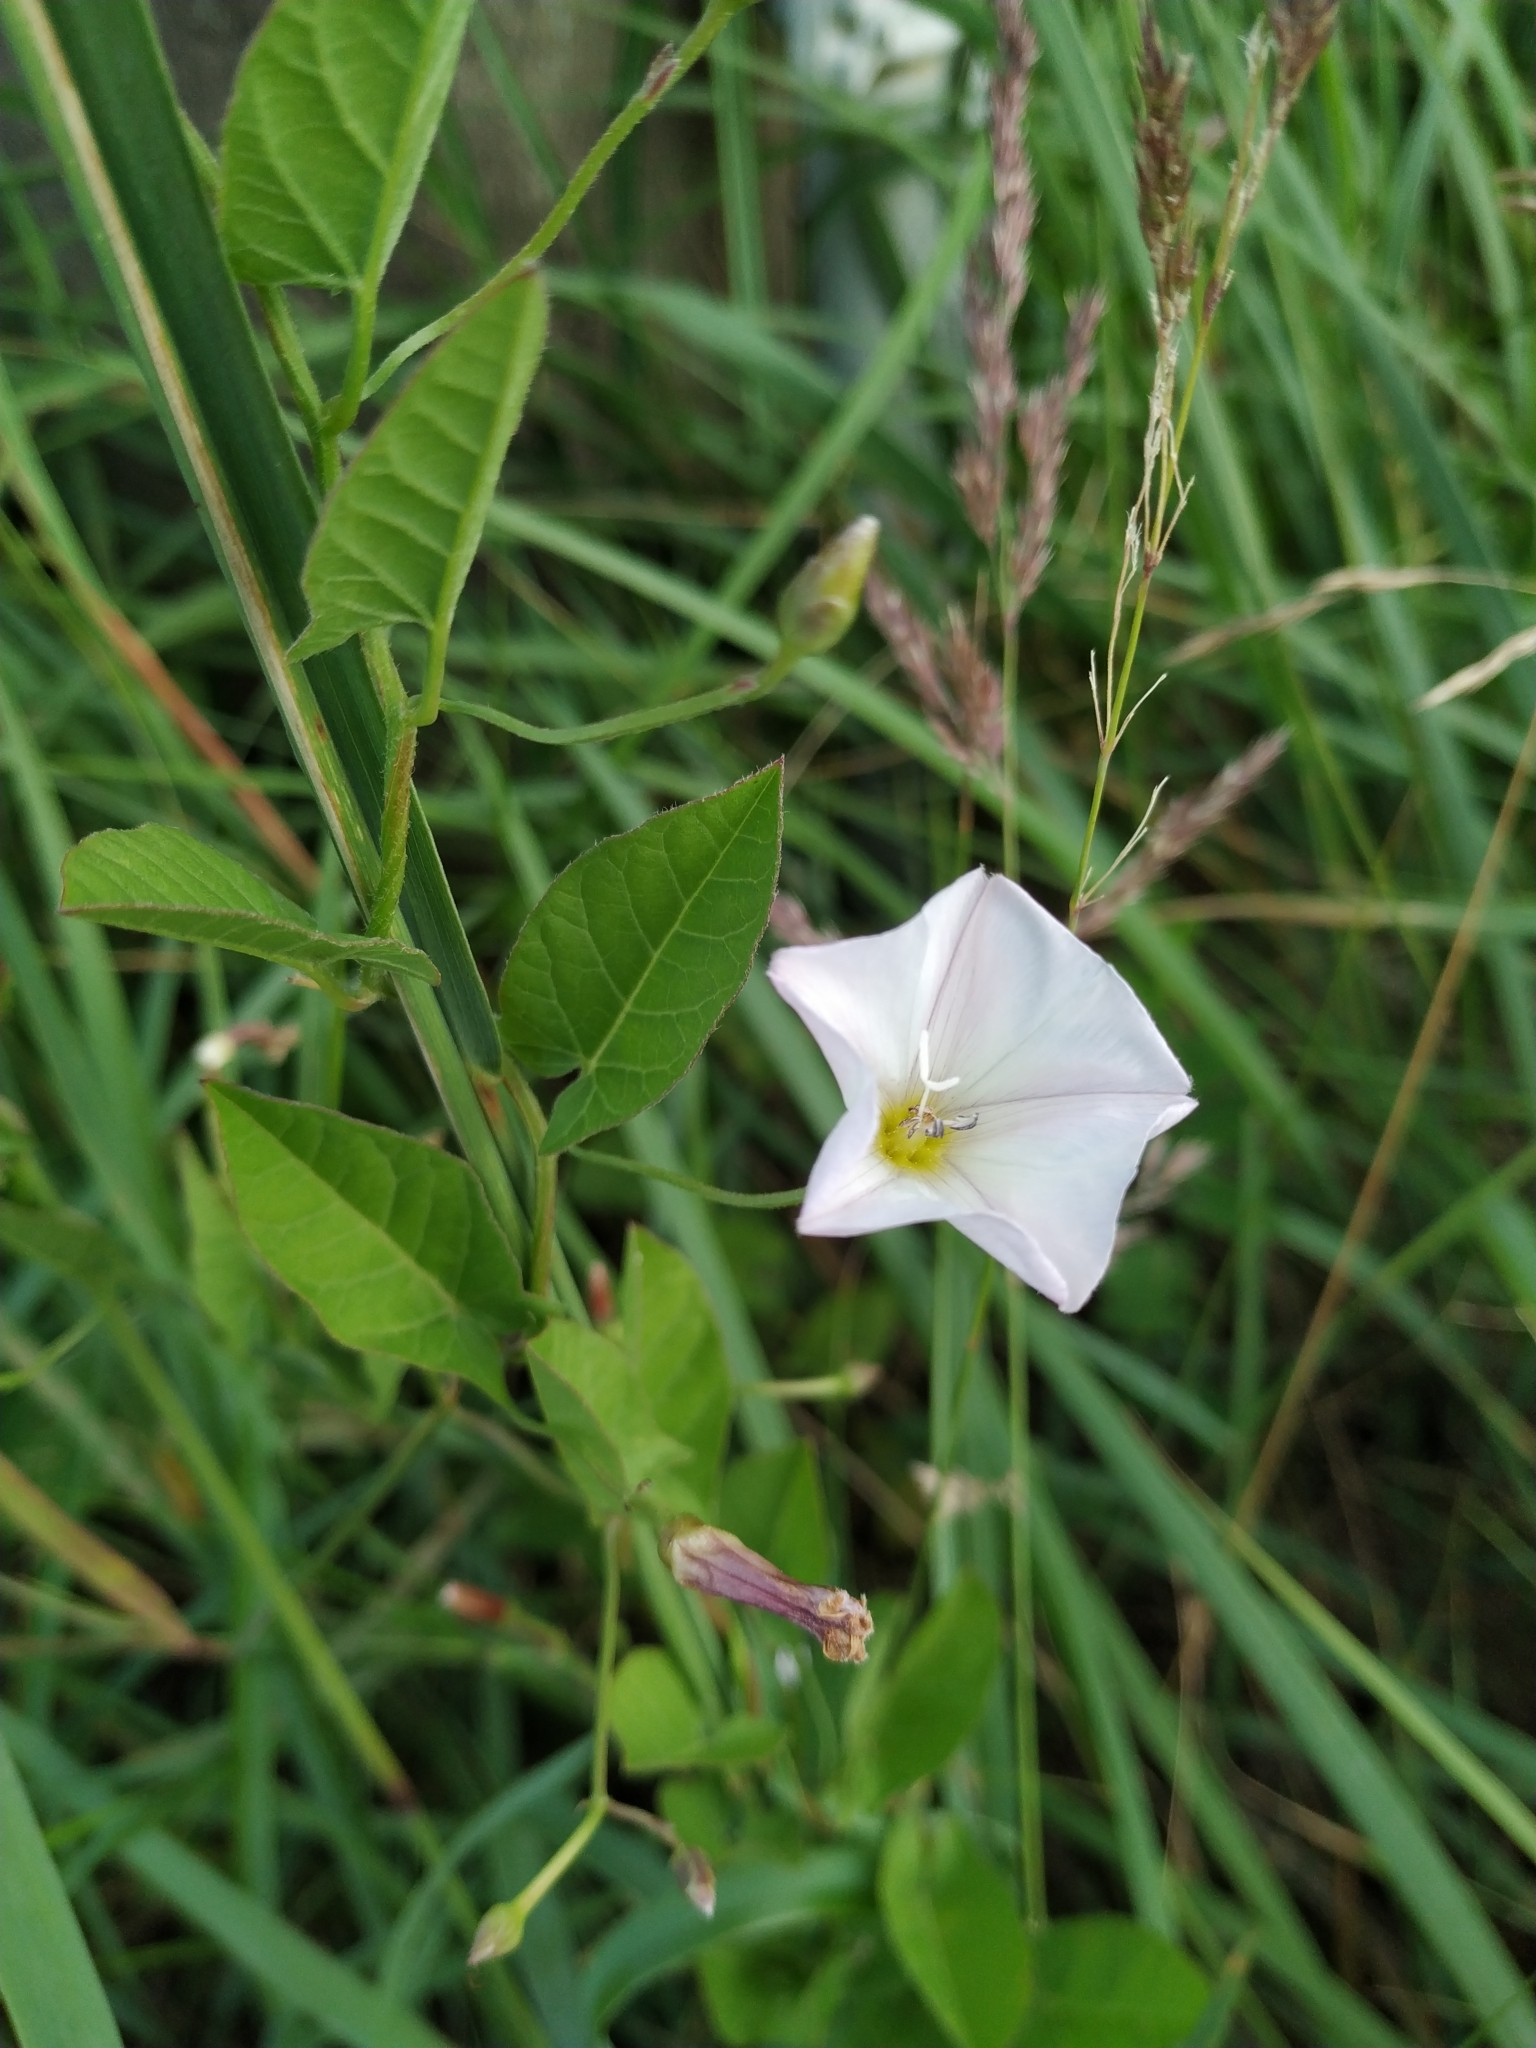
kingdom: Plantae
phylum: Tracheophyta
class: Magnoliopsida
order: Solanales
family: Convolvulaceae
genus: Convolvulus
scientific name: Convolvulus arvensis
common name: Field bindweed
